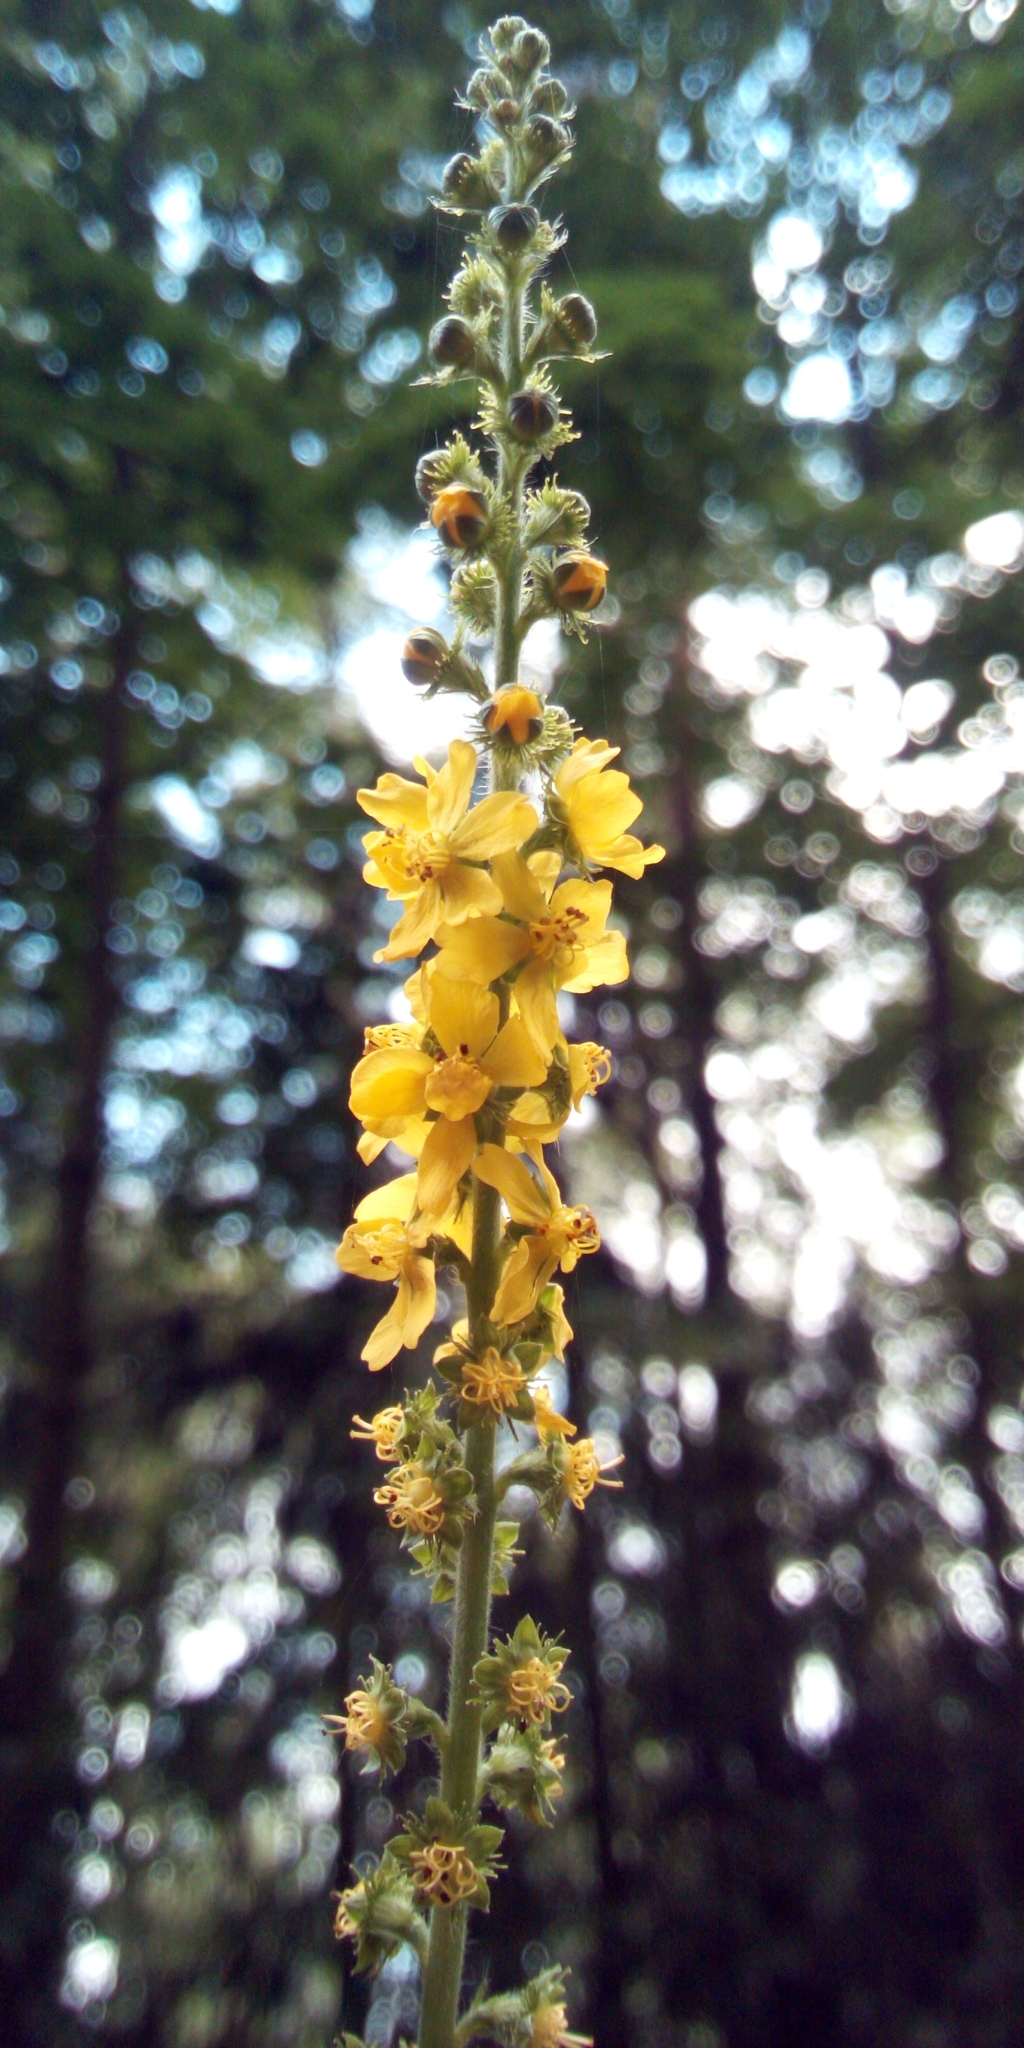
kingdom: Plantae
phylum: Tracheophyta
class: Magnoliopsida
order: Rosales
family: Rosaceae
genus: Agrimonia
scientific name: Agrimonia eupatoria
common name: Agrimony
